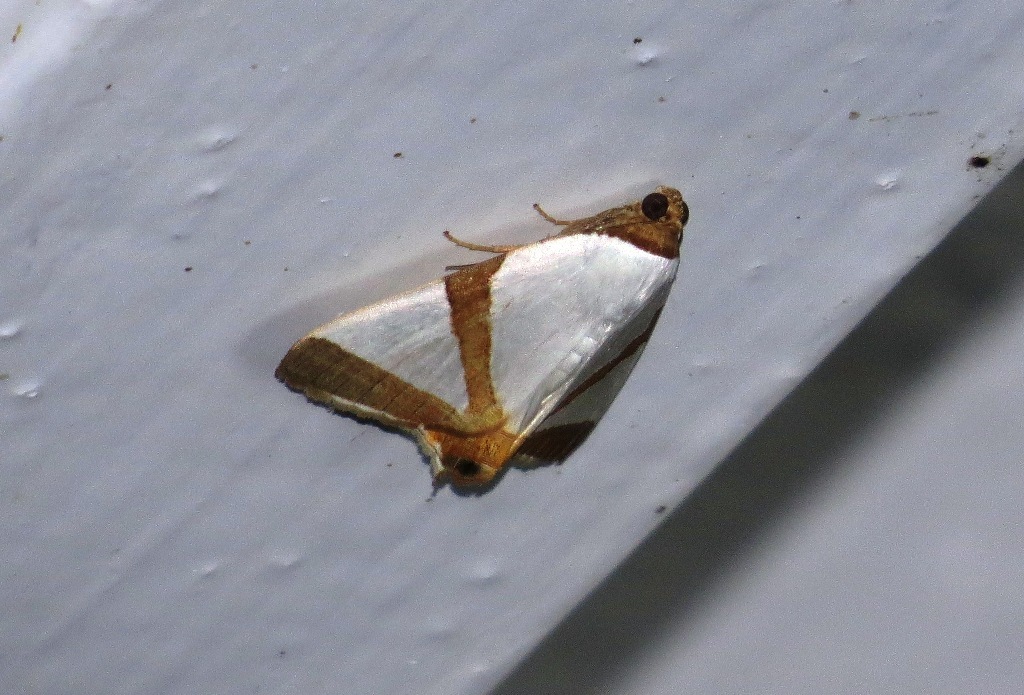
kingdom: Animalia
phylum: Arthropoda
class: Insecta
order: Lepidoptera
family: Erebidae
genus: Eulepidotis
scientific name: Eulepidotis santarema
